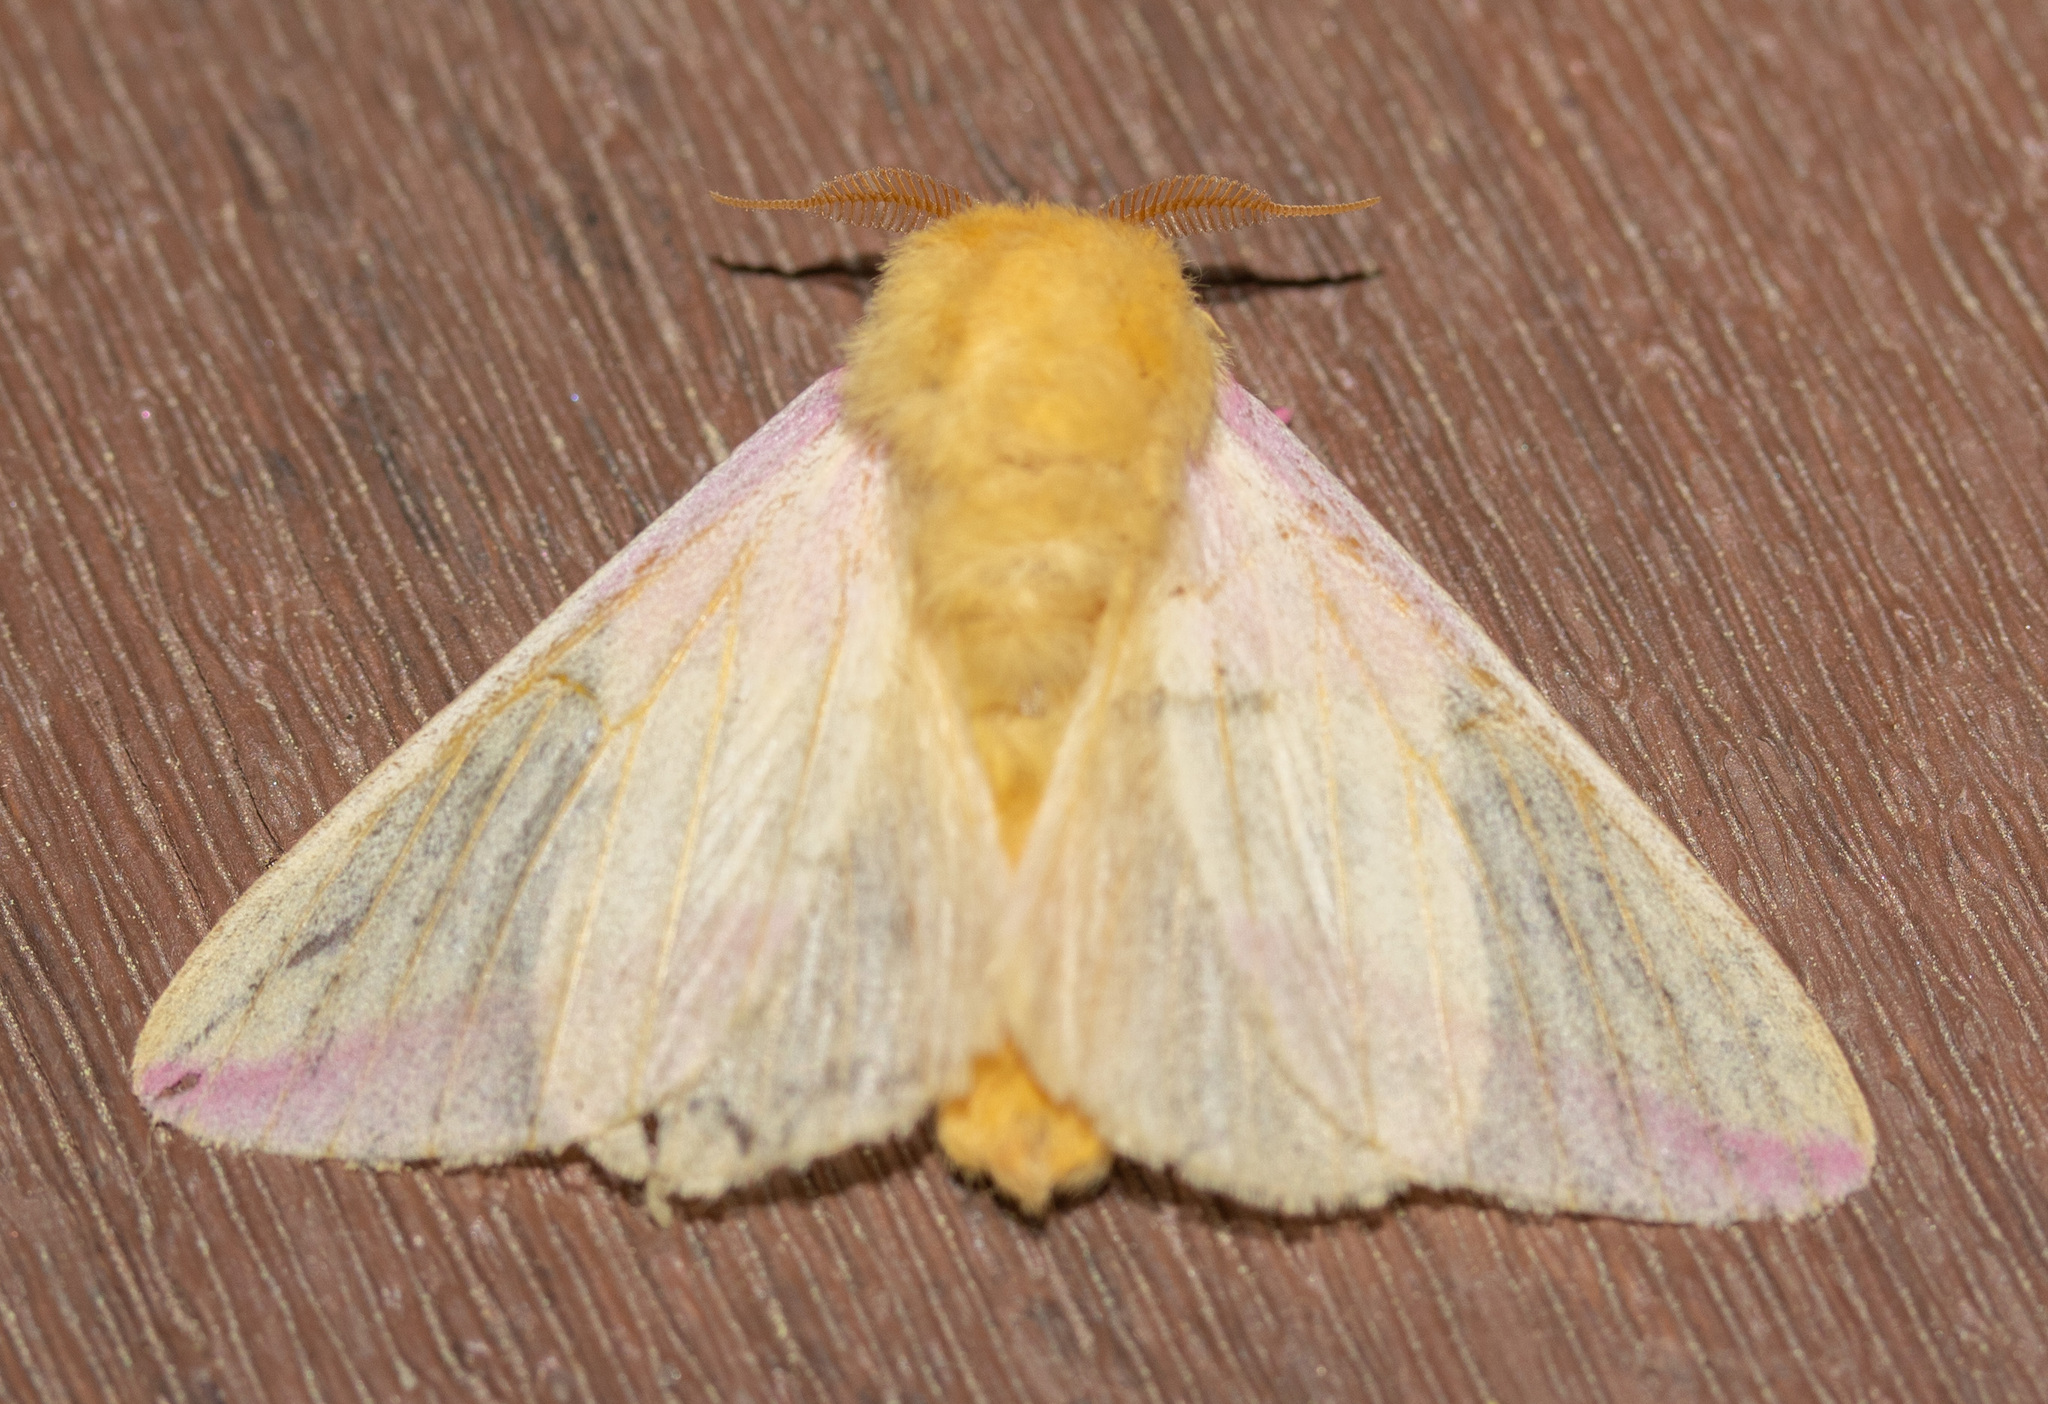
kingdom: Animalia
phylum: Arthropoda
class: Insecta
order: Lepidoptera
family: Saturniidae
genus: Dryocampa
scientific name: Dryocampa rubicunda
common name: Rosy maple moth
